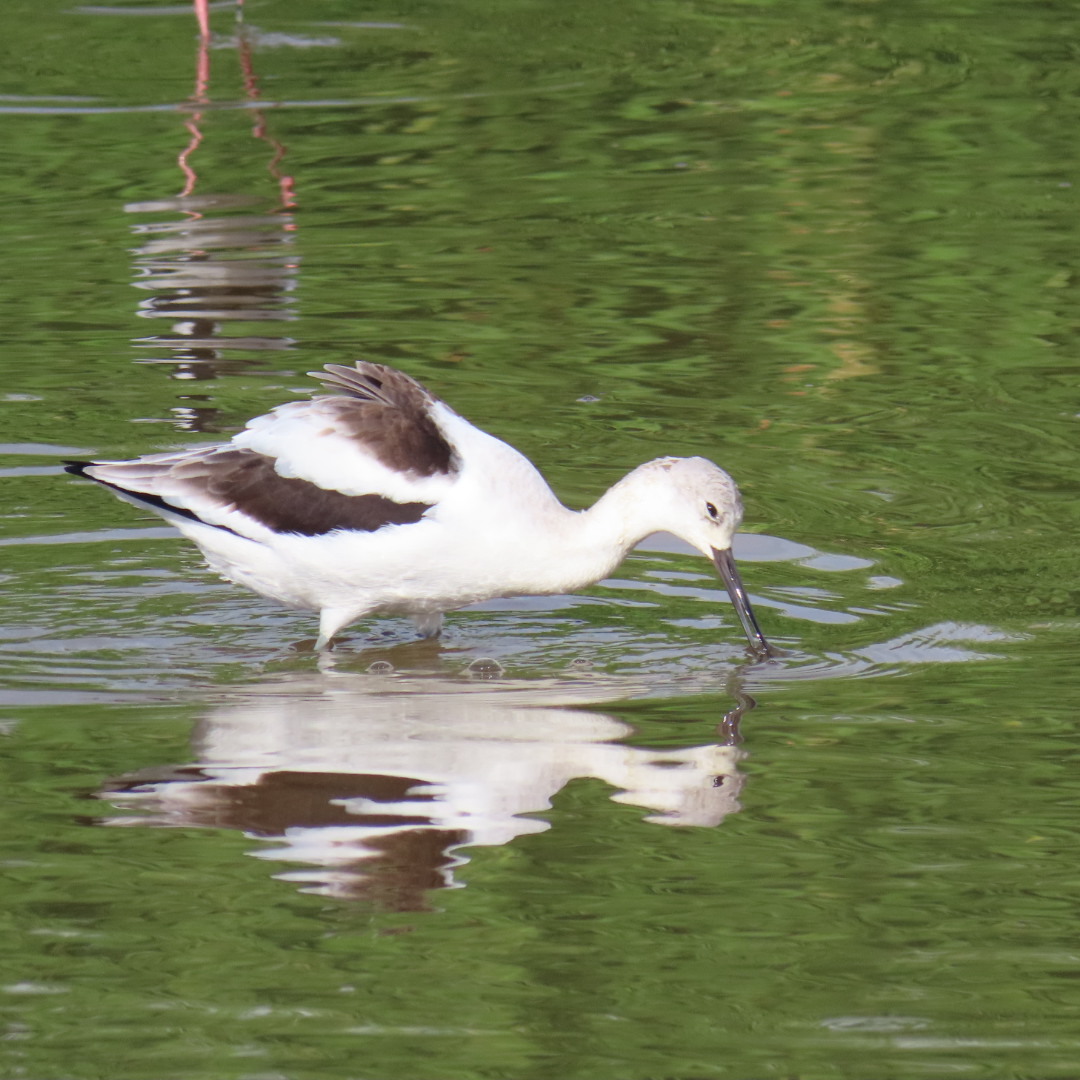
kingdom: Animalia
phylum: Chordata
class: Aves
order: Charadriiformes
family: Recurvirostridae
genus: Recurvirostra
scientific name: Recurvirostra americana
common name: American avocet
